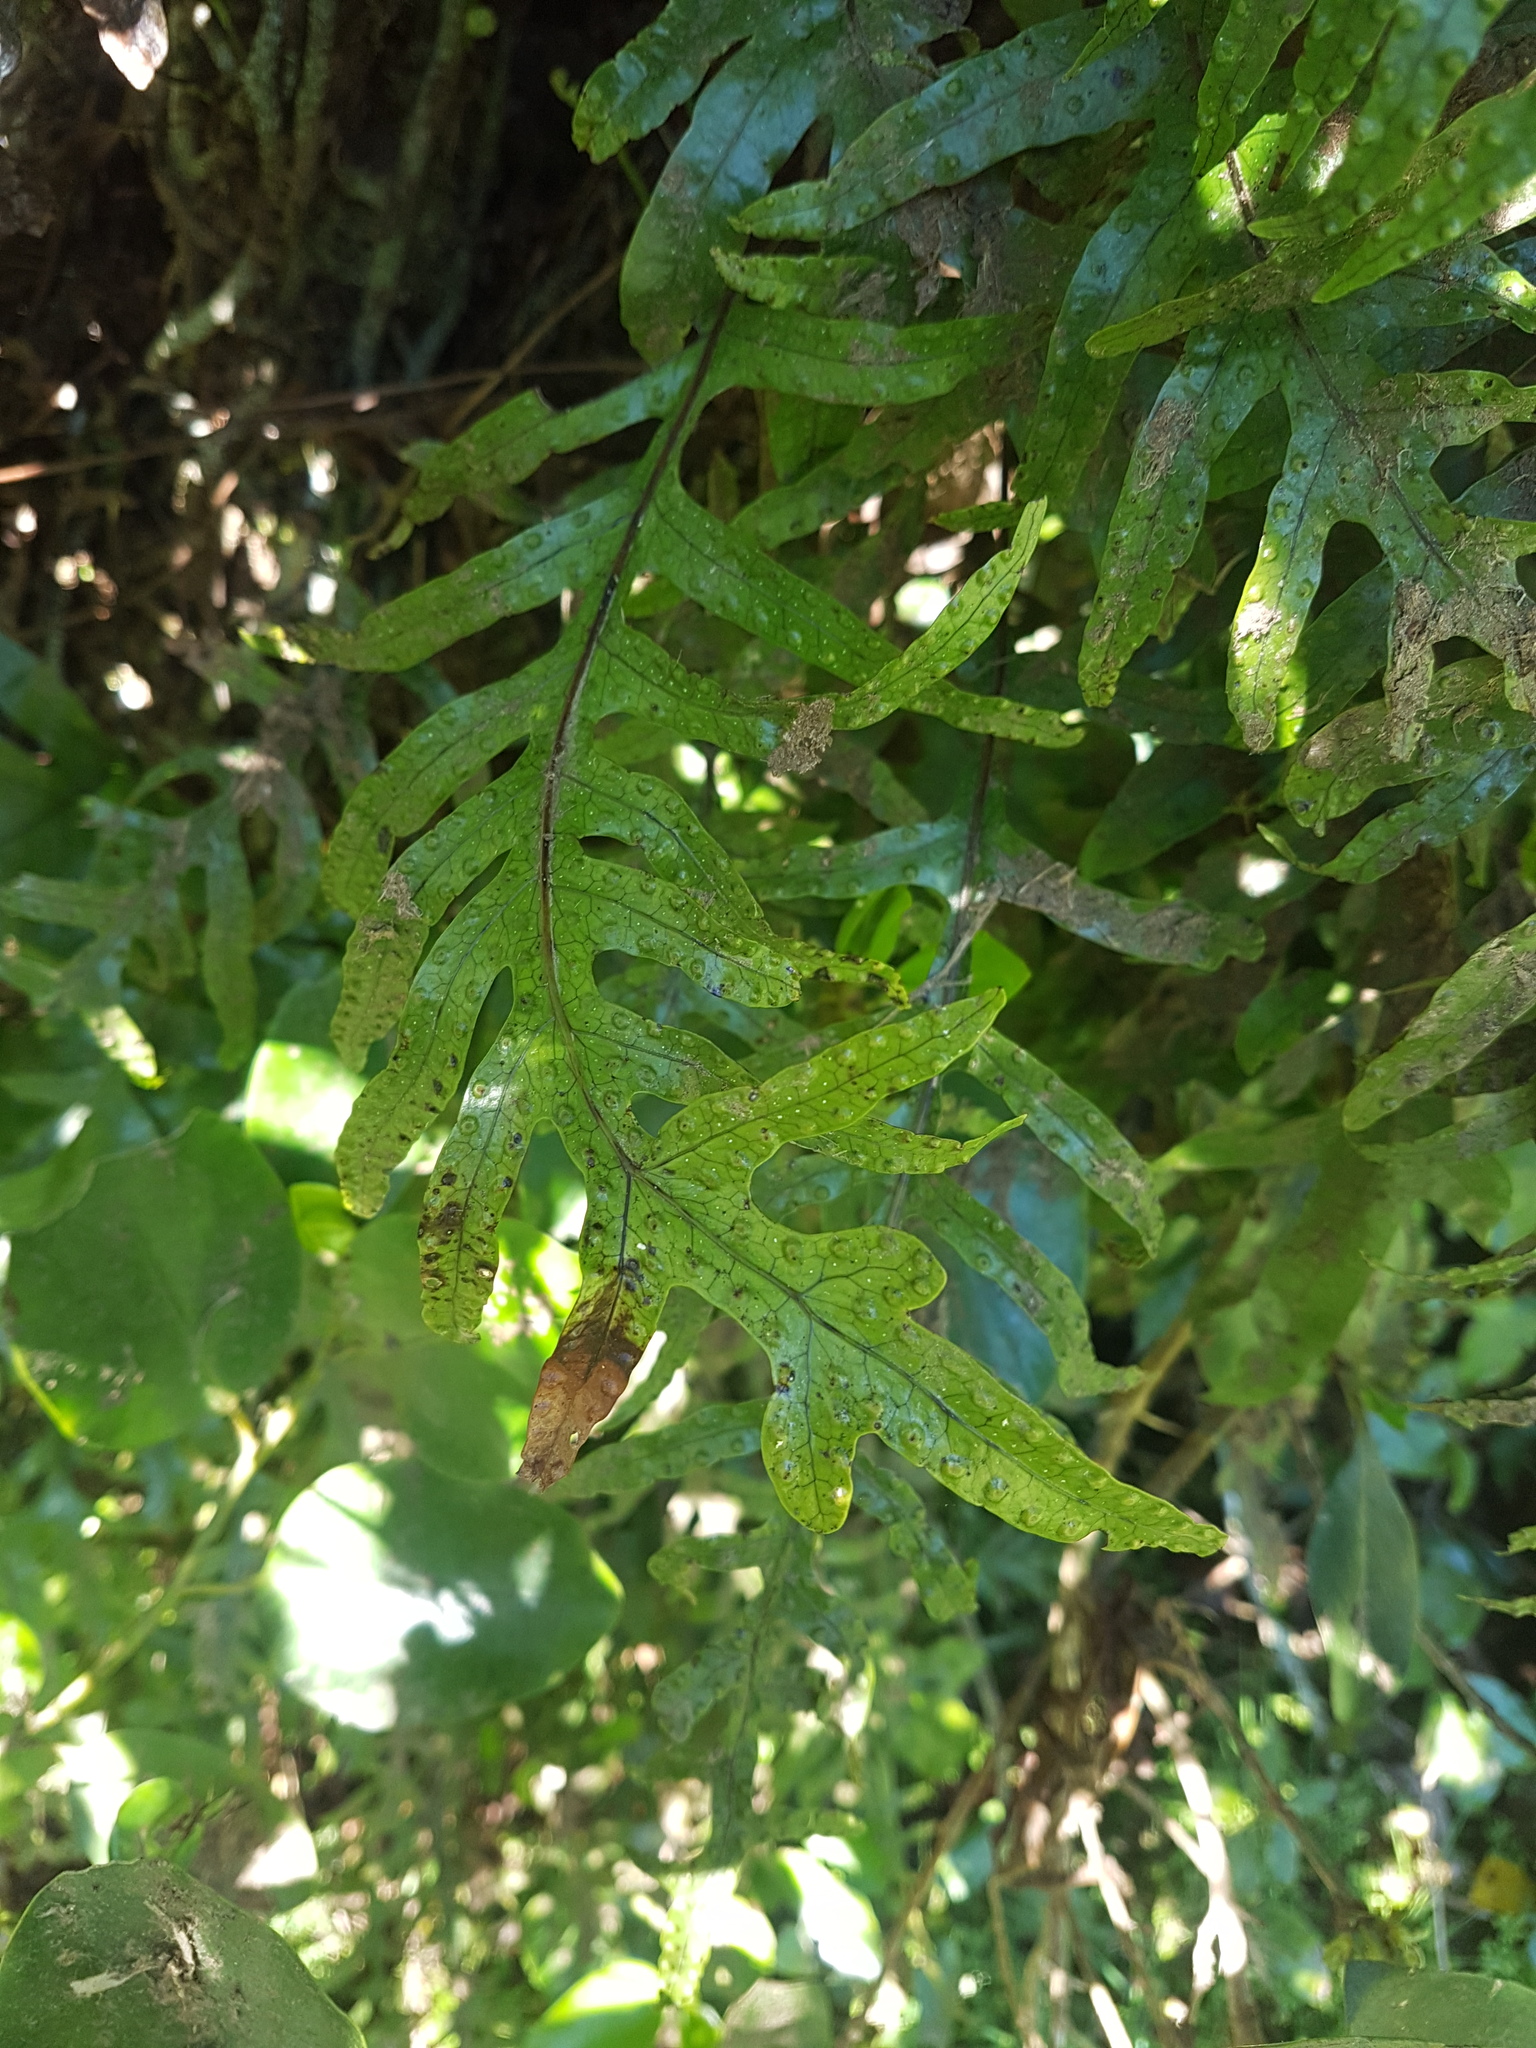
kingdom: Plantae
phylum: Tracheophyta
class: Polypodiopsida
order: Polypodiales
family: Polypodiaceae
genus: Lecanopteris
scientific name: Lecanopteris pustulata
